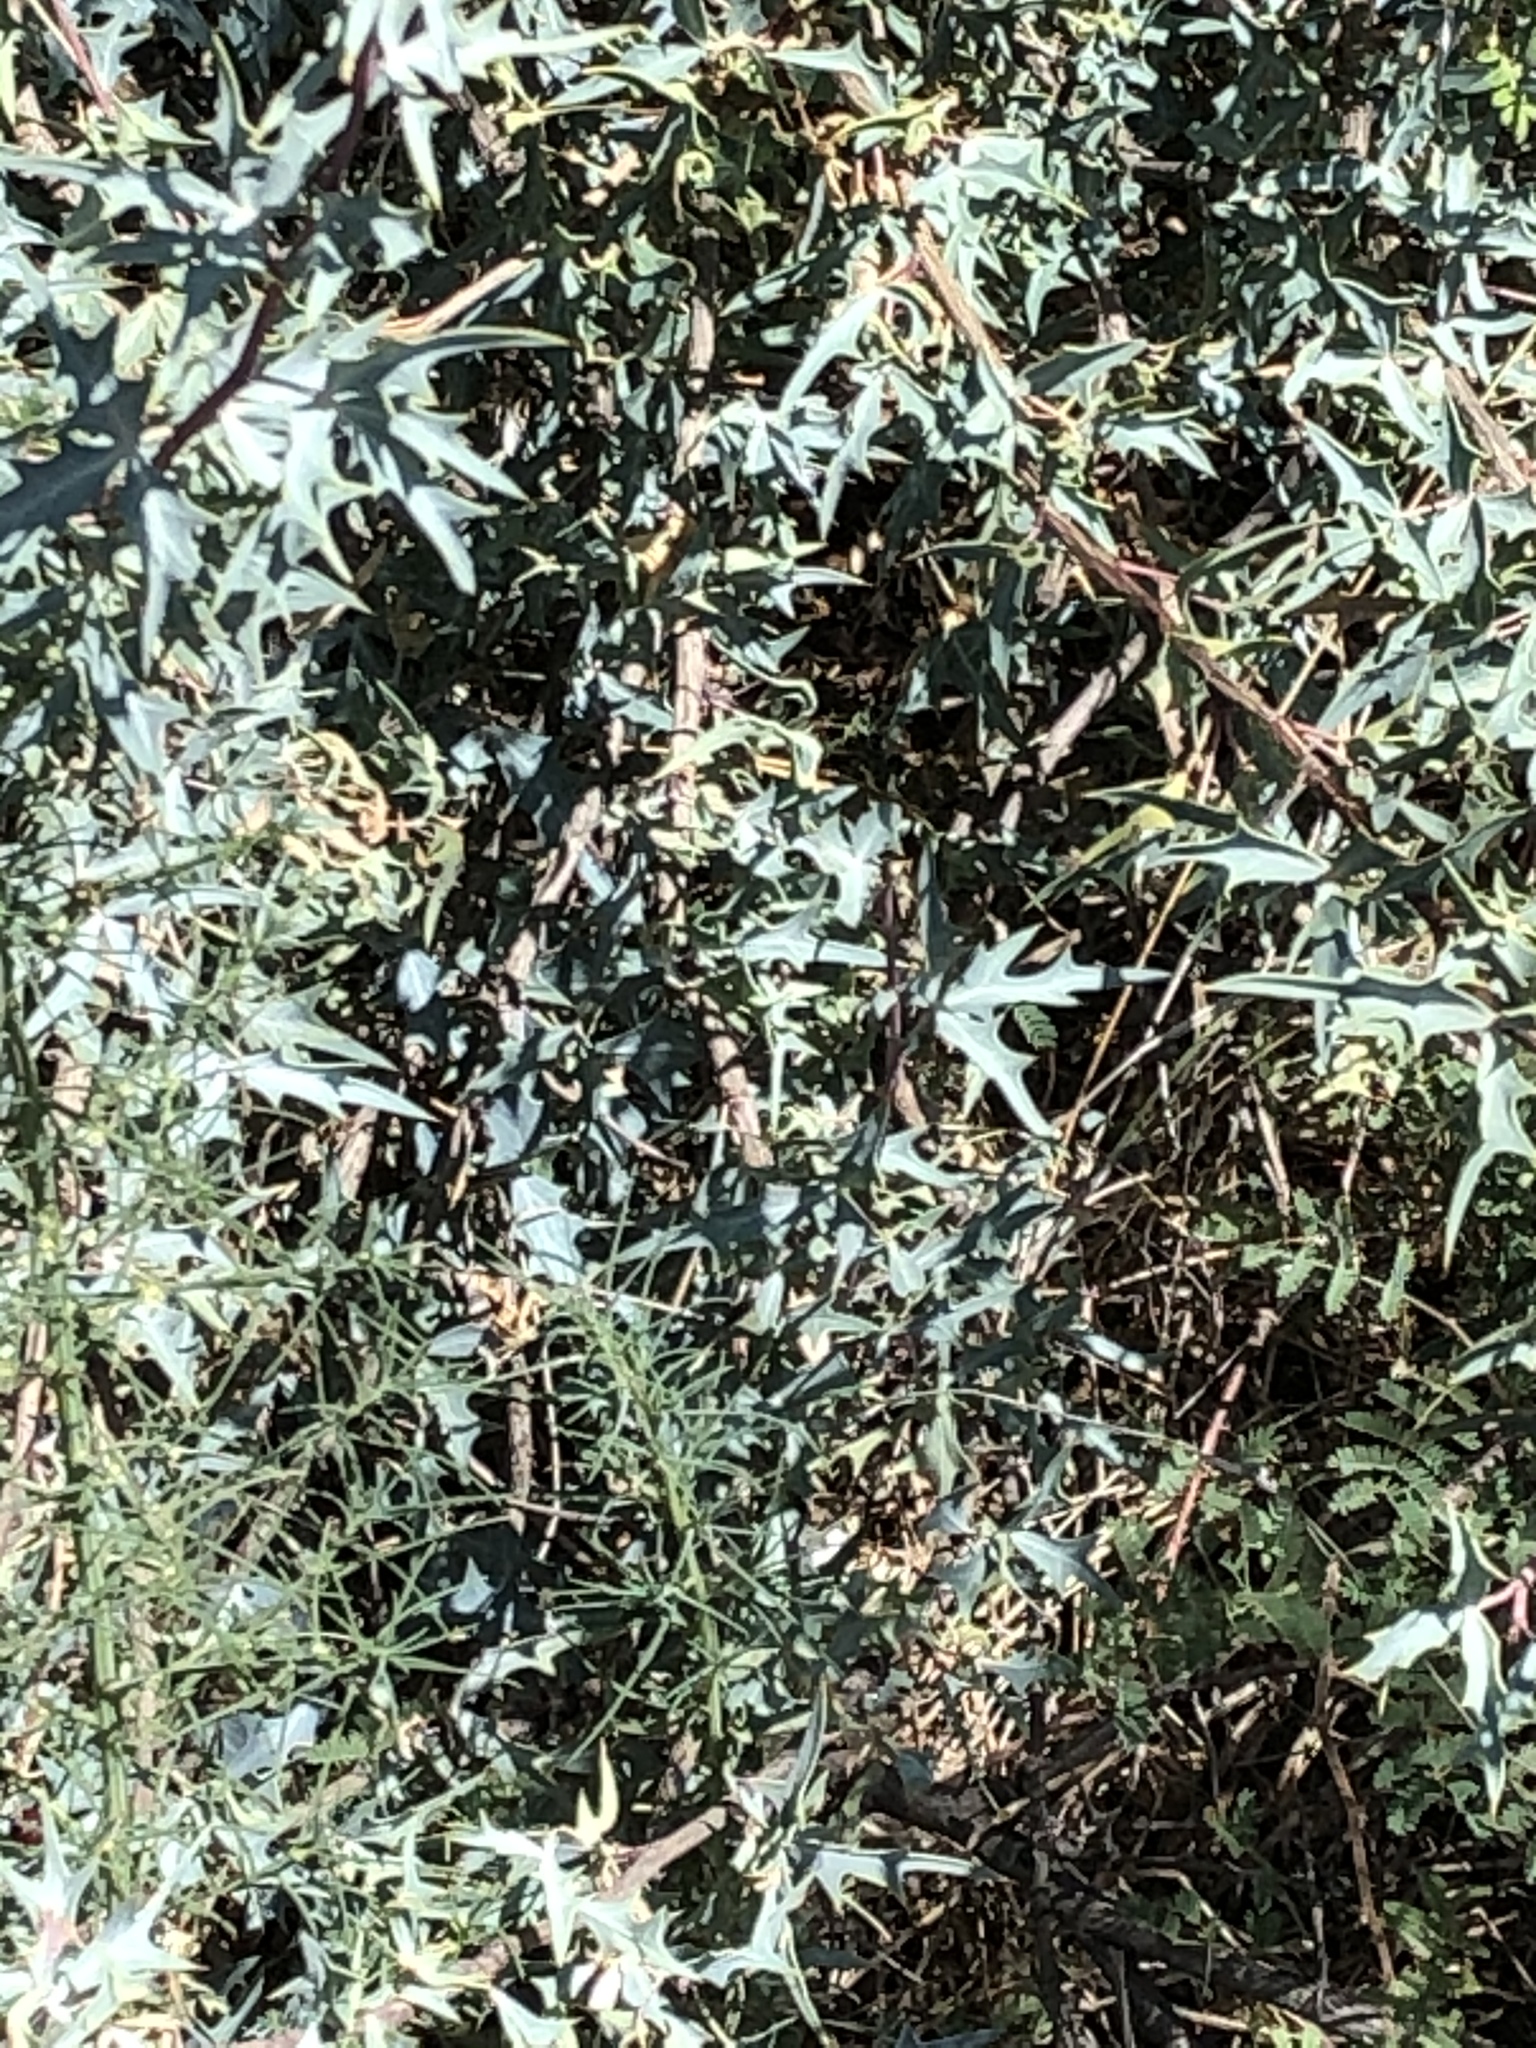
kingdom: Plantae
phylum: Tracheophyta
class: Magnoliopsida
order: Ranunculales
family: Berberidaceae
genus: Alloberberis
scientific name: Alloberberis trifoliolata
